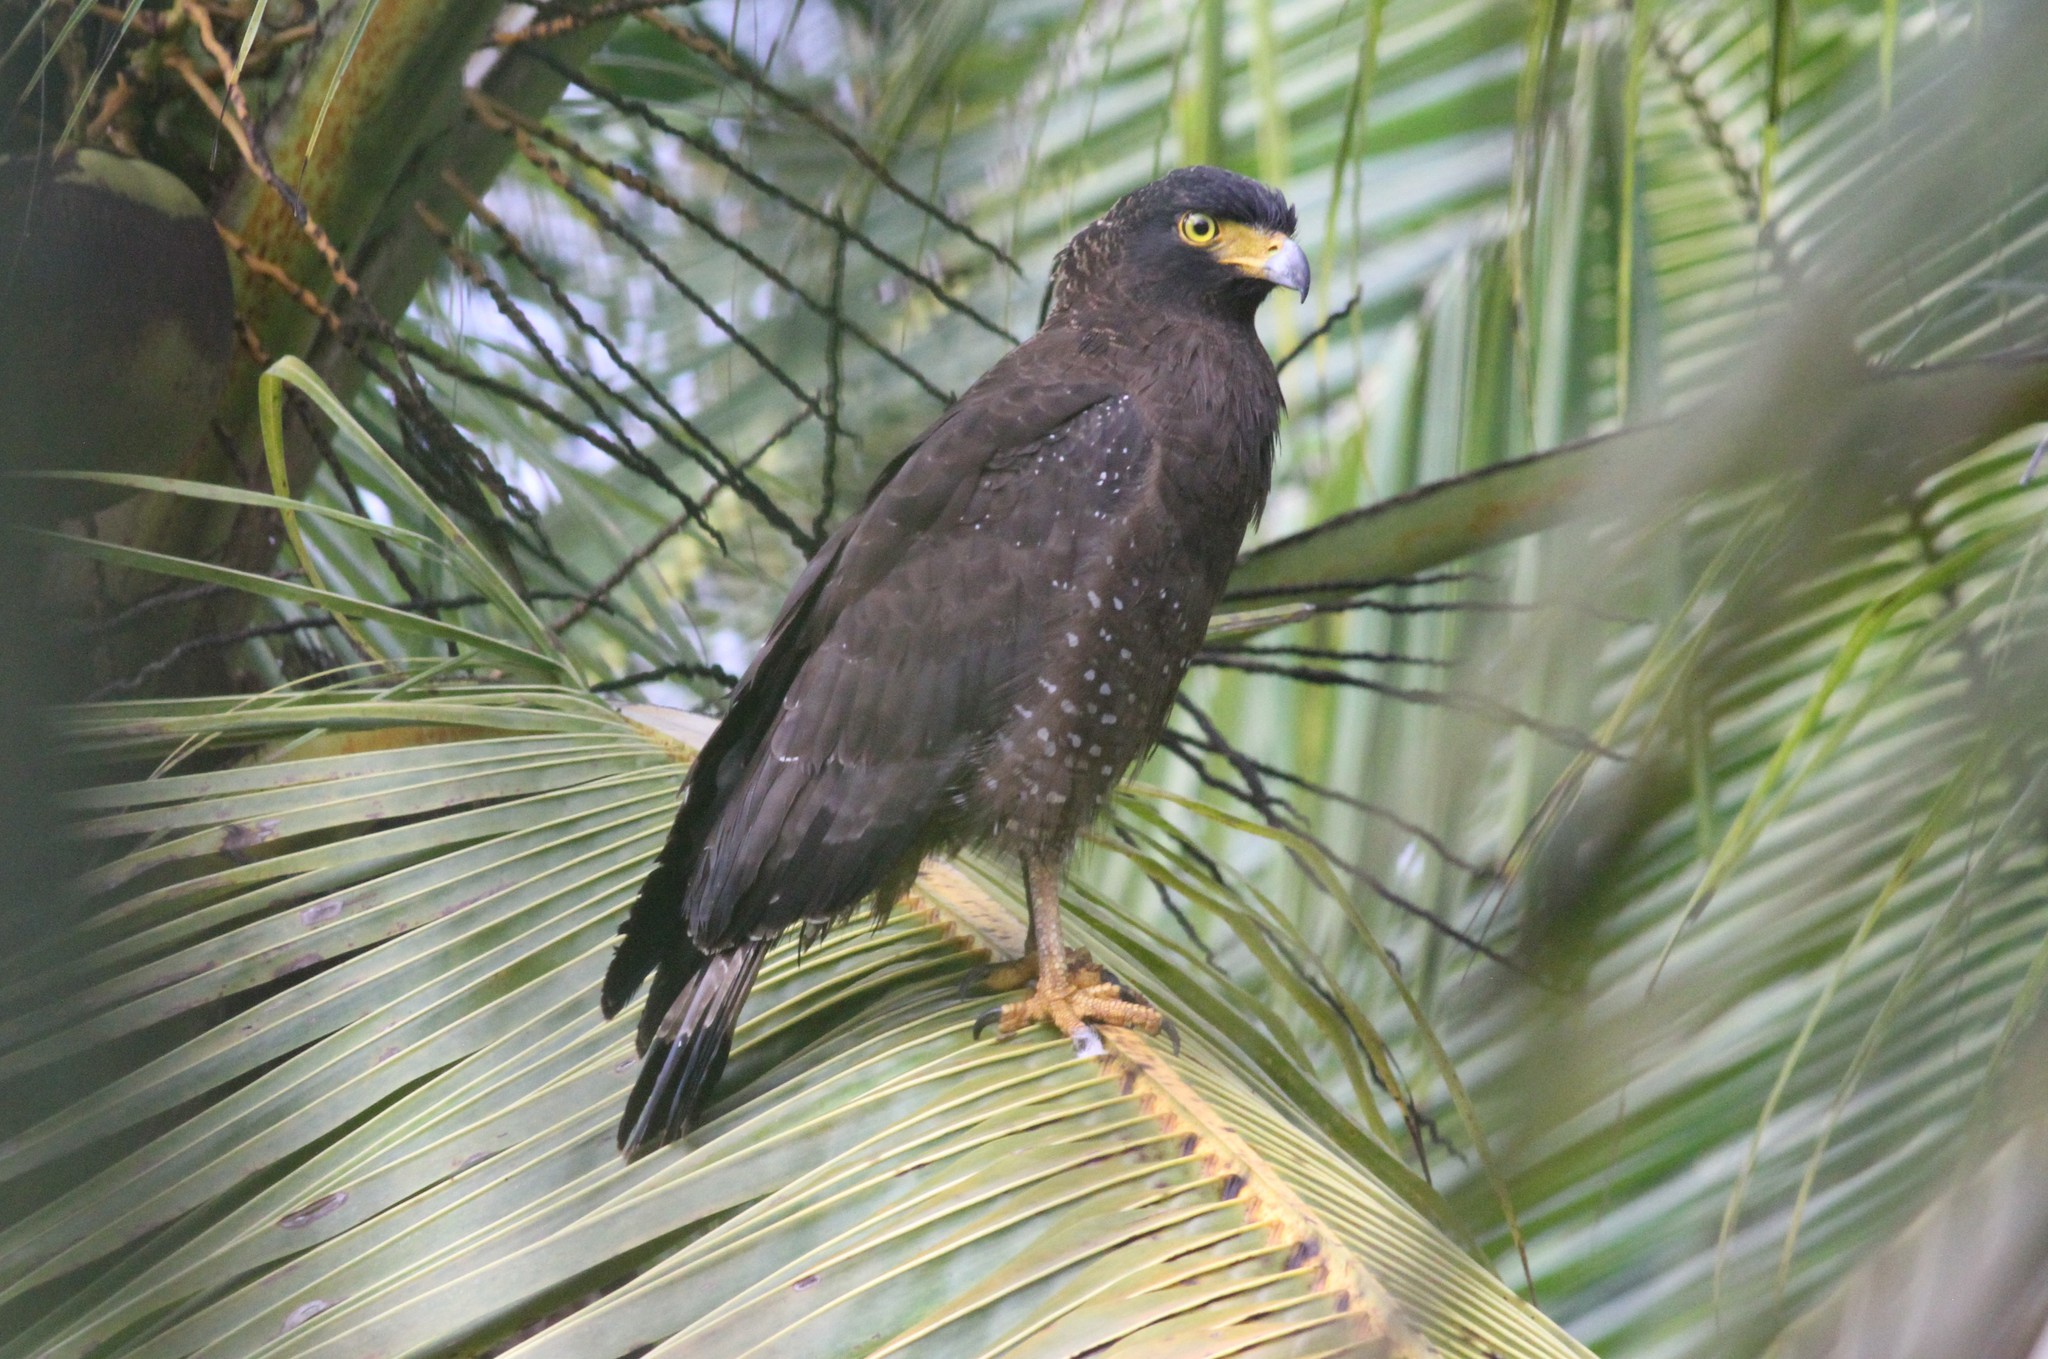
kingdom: Animalia
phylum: Chordata
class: Aves
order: Accipitriformes
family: Accipitridae
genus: Spilornis
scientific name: Spilornis cheela
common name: Crested serpent eagle
